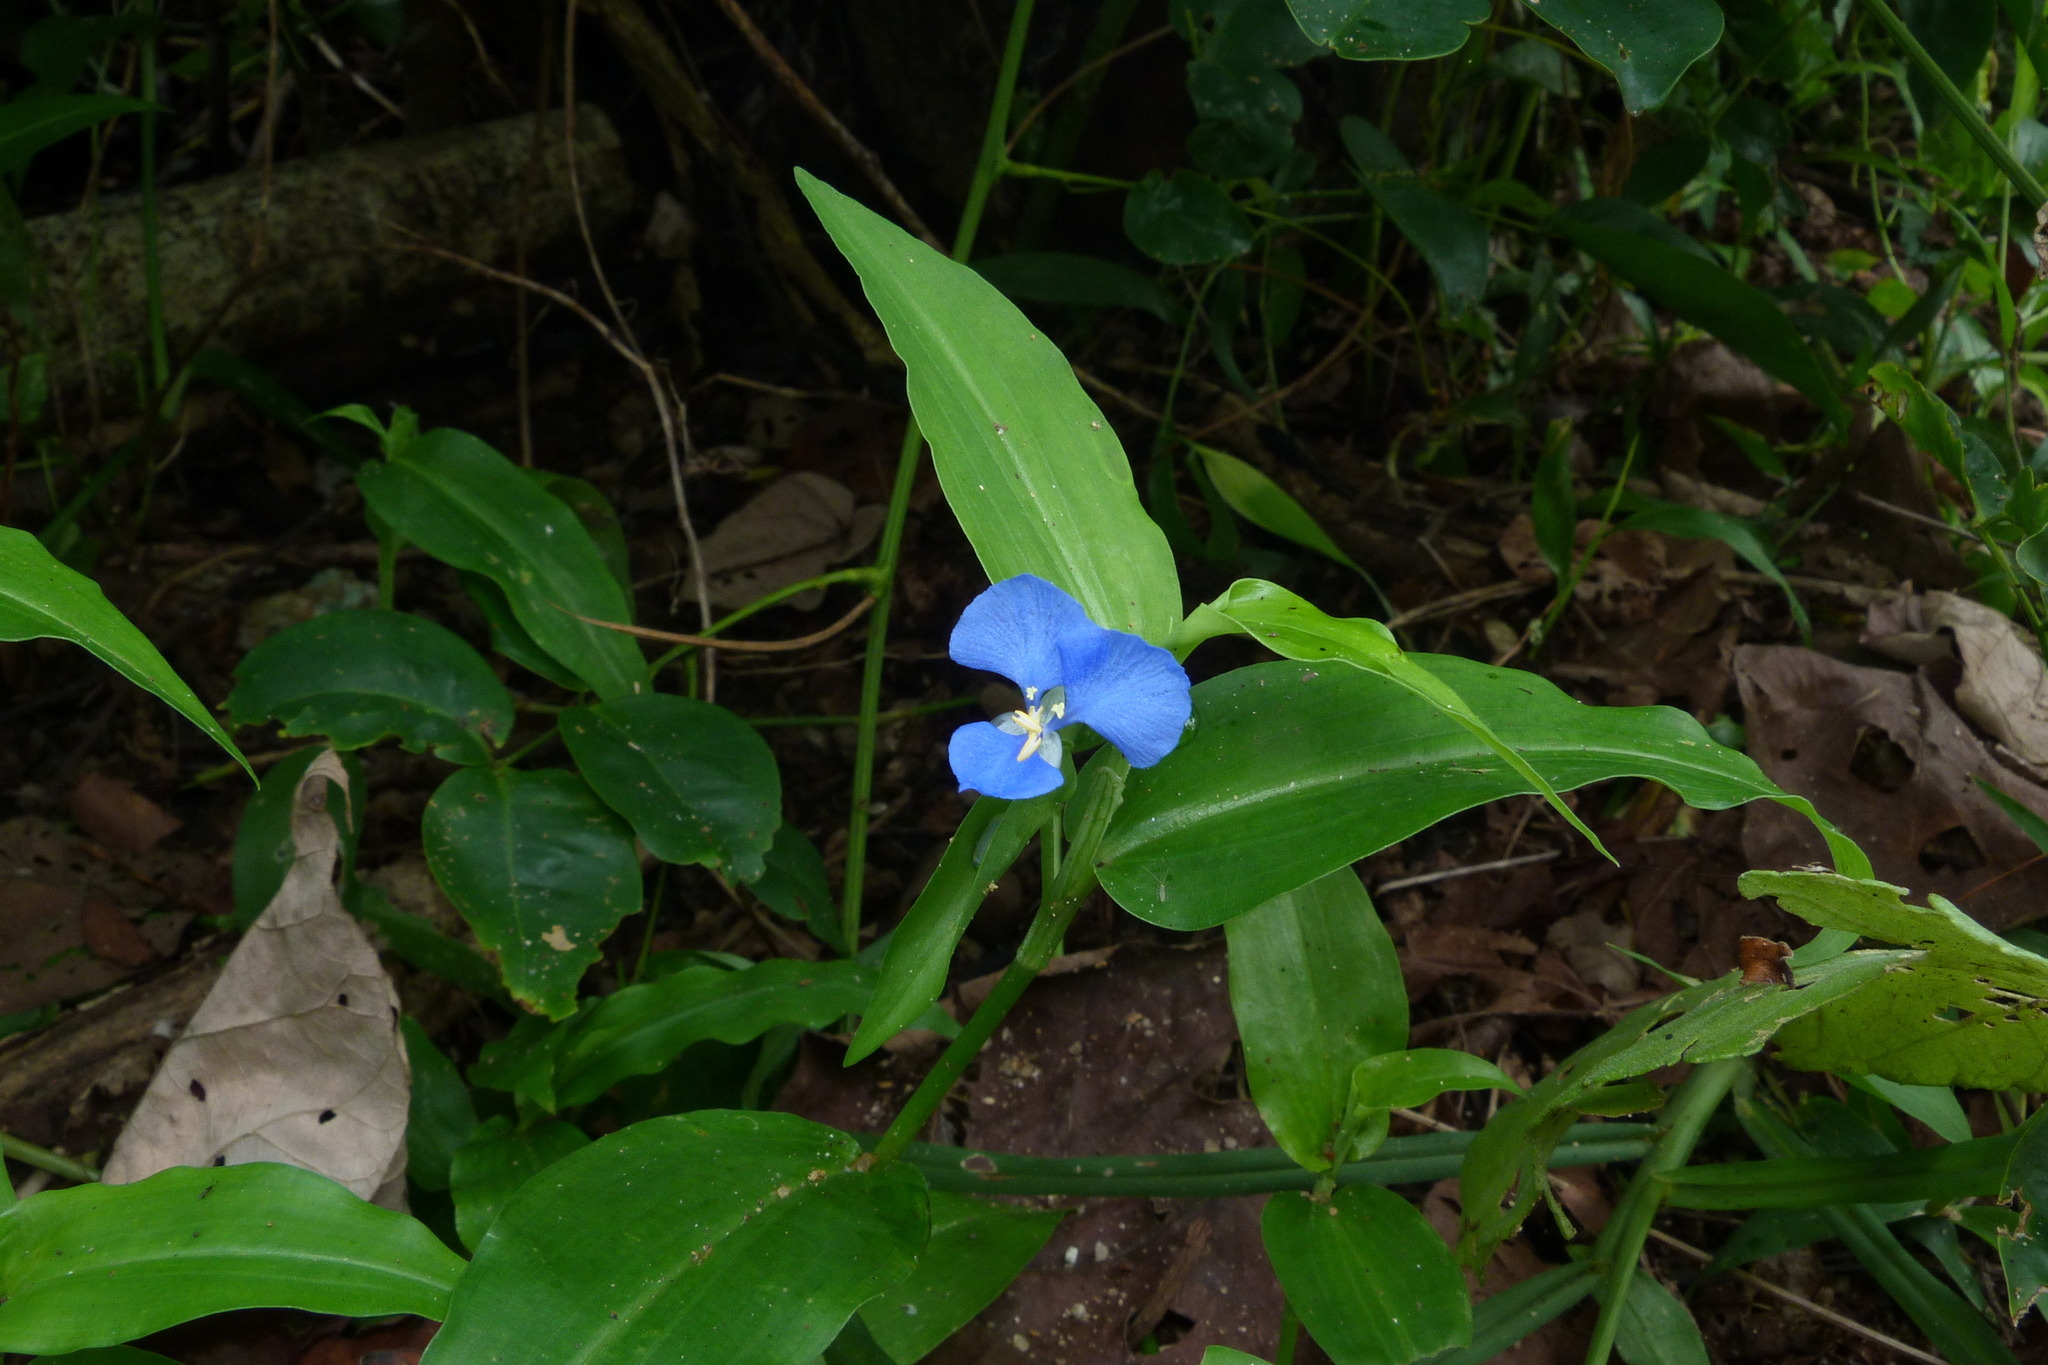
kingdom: Plantae
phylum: Tracheophyta
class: Liliopsida
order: Commelinales
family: Commelinaceae
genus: Commelina
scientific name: Commelina cyanea
